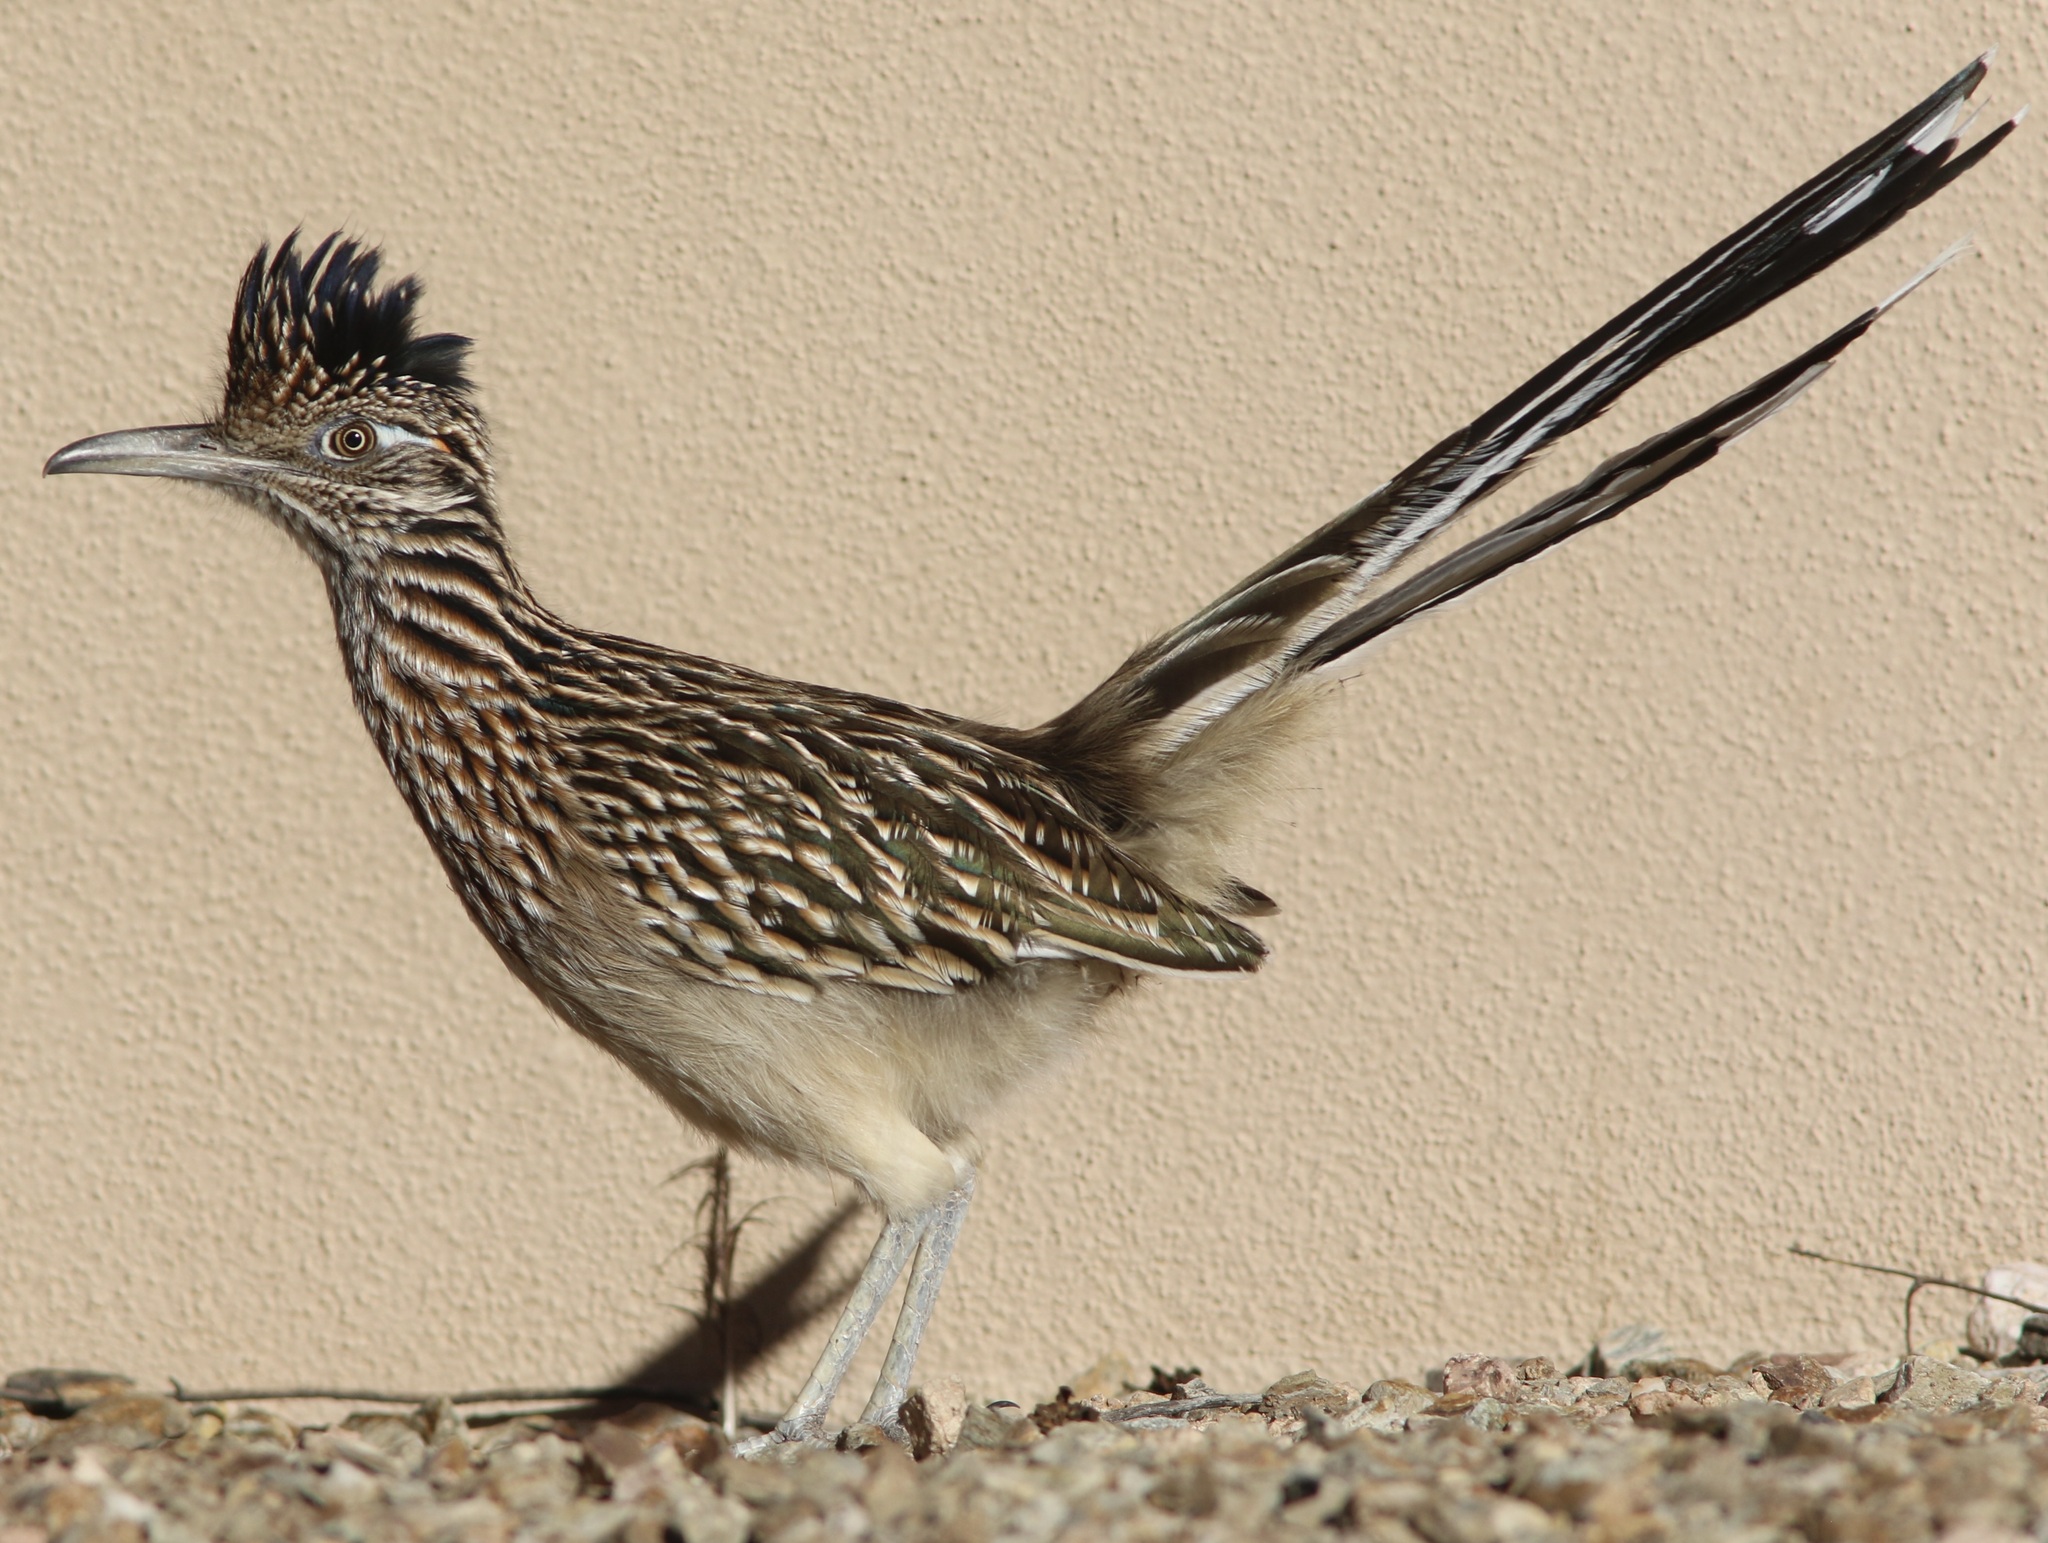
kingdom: Animalia
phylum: Chordata
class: Aves
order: Cuculiformes
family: Cuculidae
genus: Geococcyx
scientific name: Geococcyx californianus
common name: Greater roadrunner
